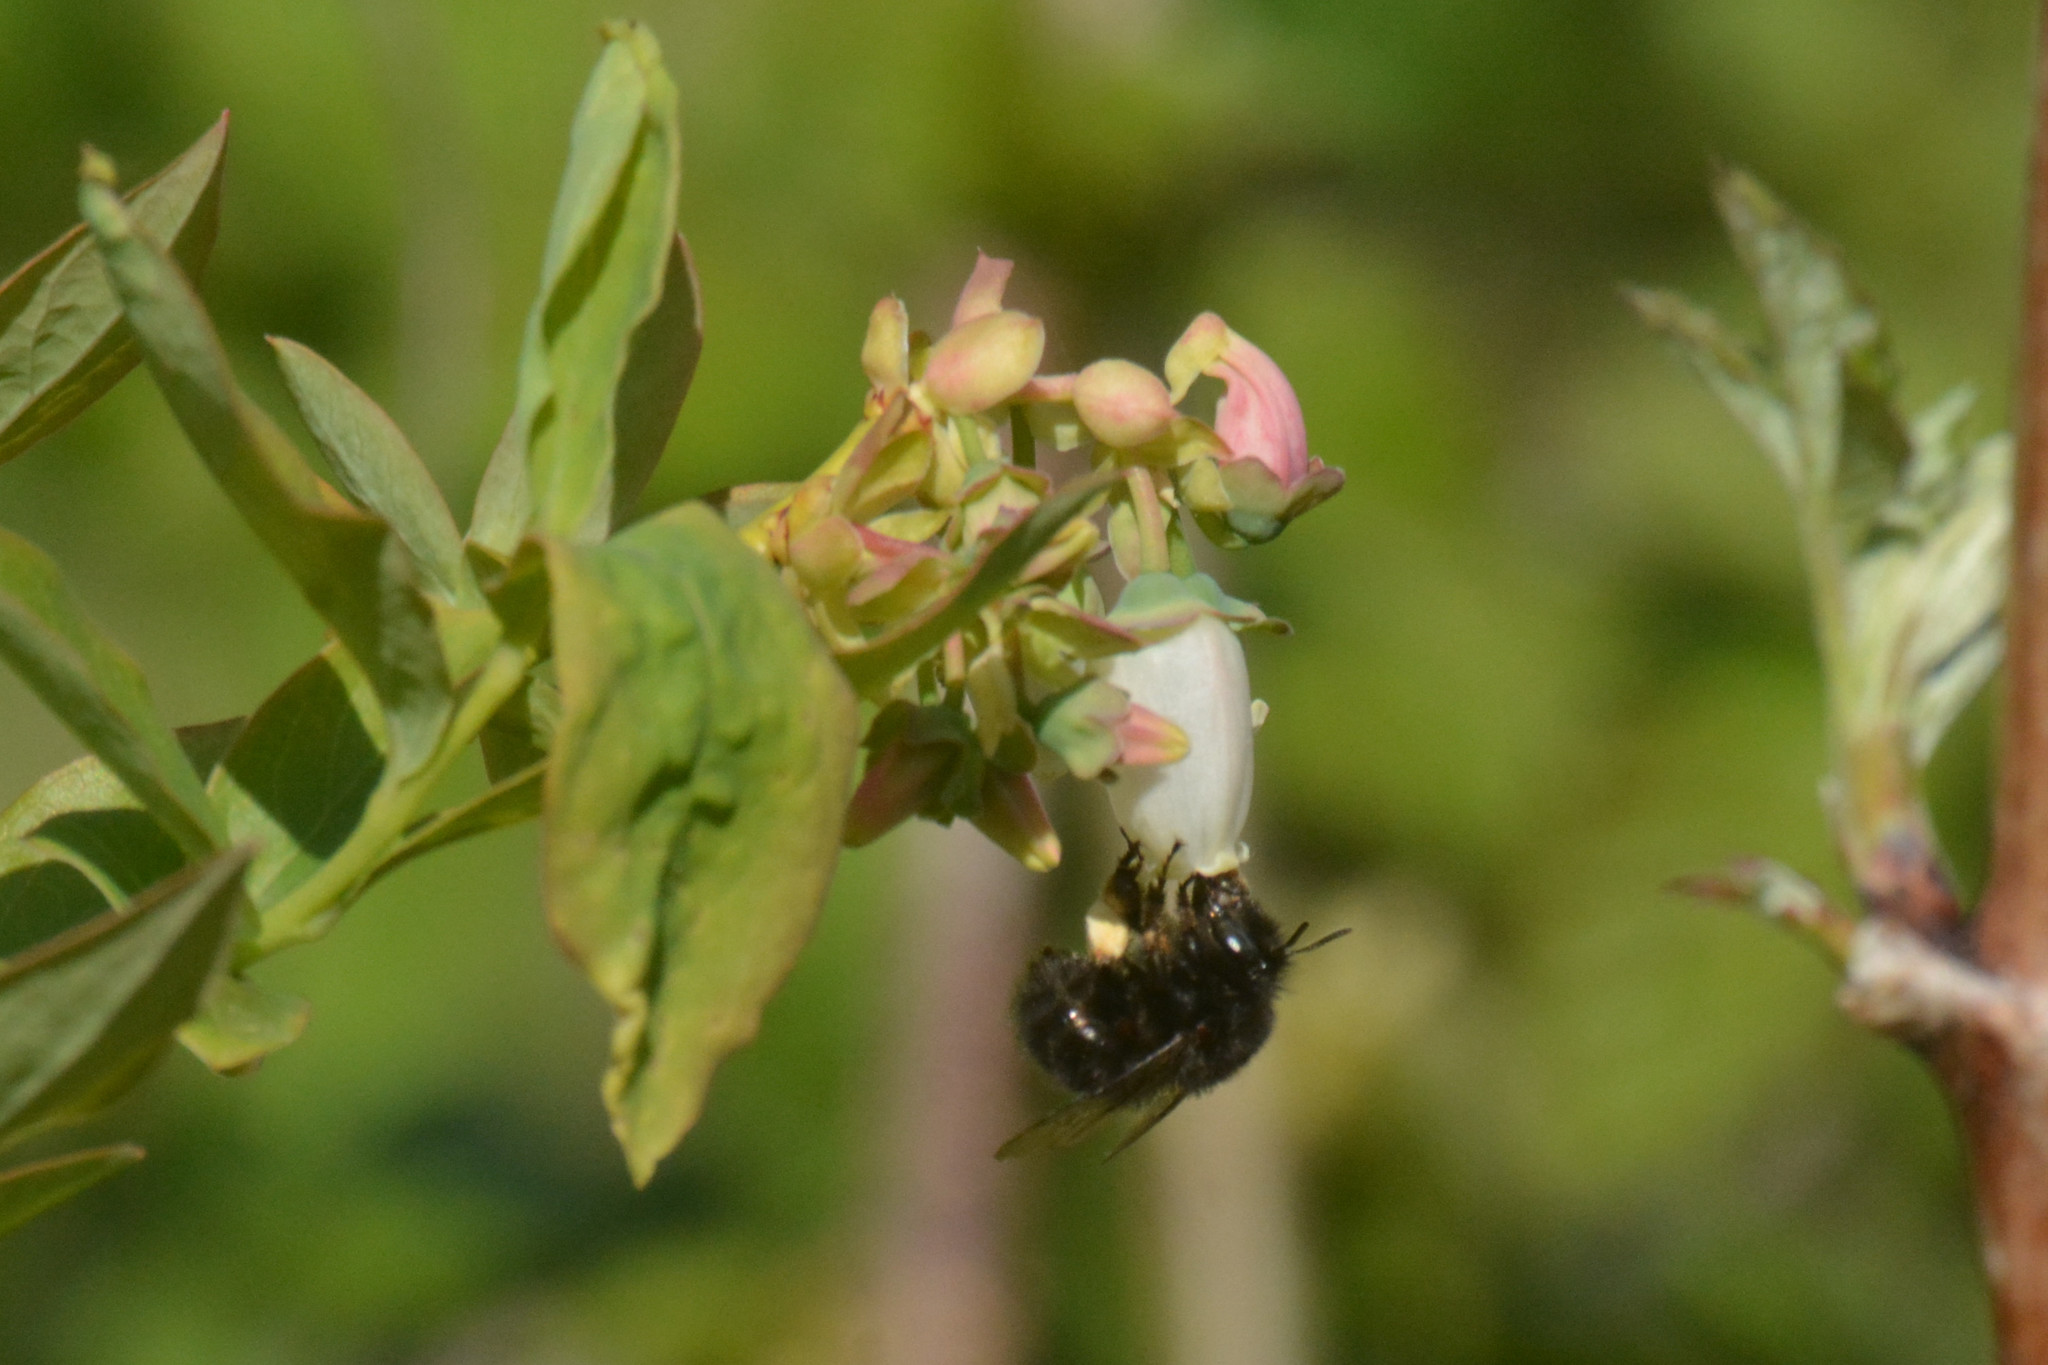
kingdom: Animalia
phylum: Arthropoda
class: Insecta
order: Hymenoptera
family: Apidae
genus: Anthophora
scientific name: Anthophora plumipes
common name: Hairy-footed flower bee
